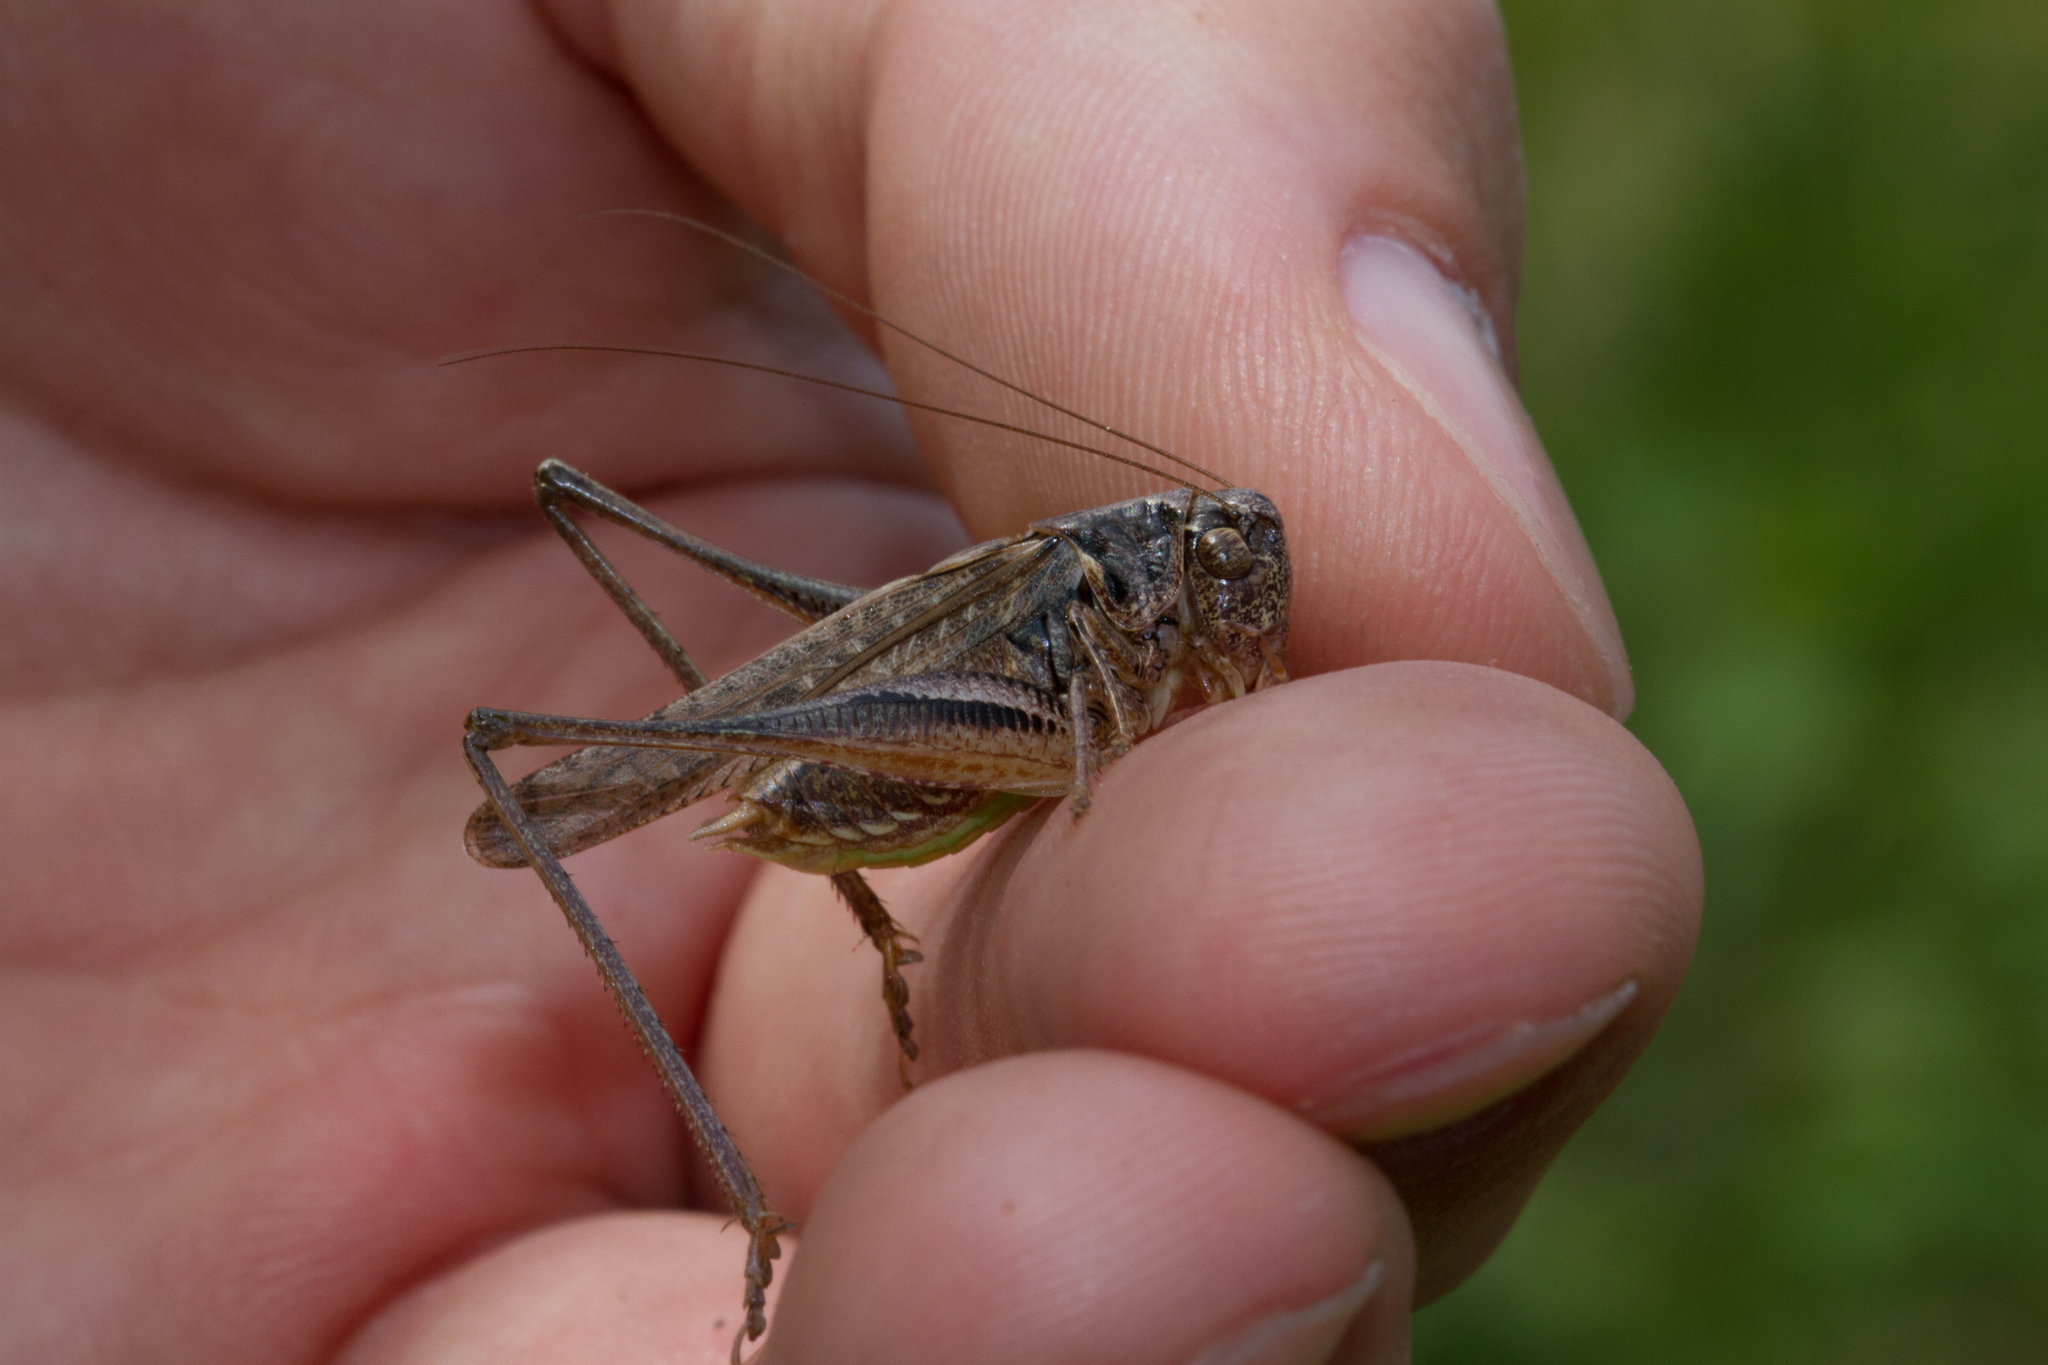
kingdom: Animalia
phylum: Arthropoda
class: Insecta
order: Orthoptera
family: Tettigoniidae
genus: Platycleis
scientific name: Platycleis albopunctata
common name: Grey bush-cricket
